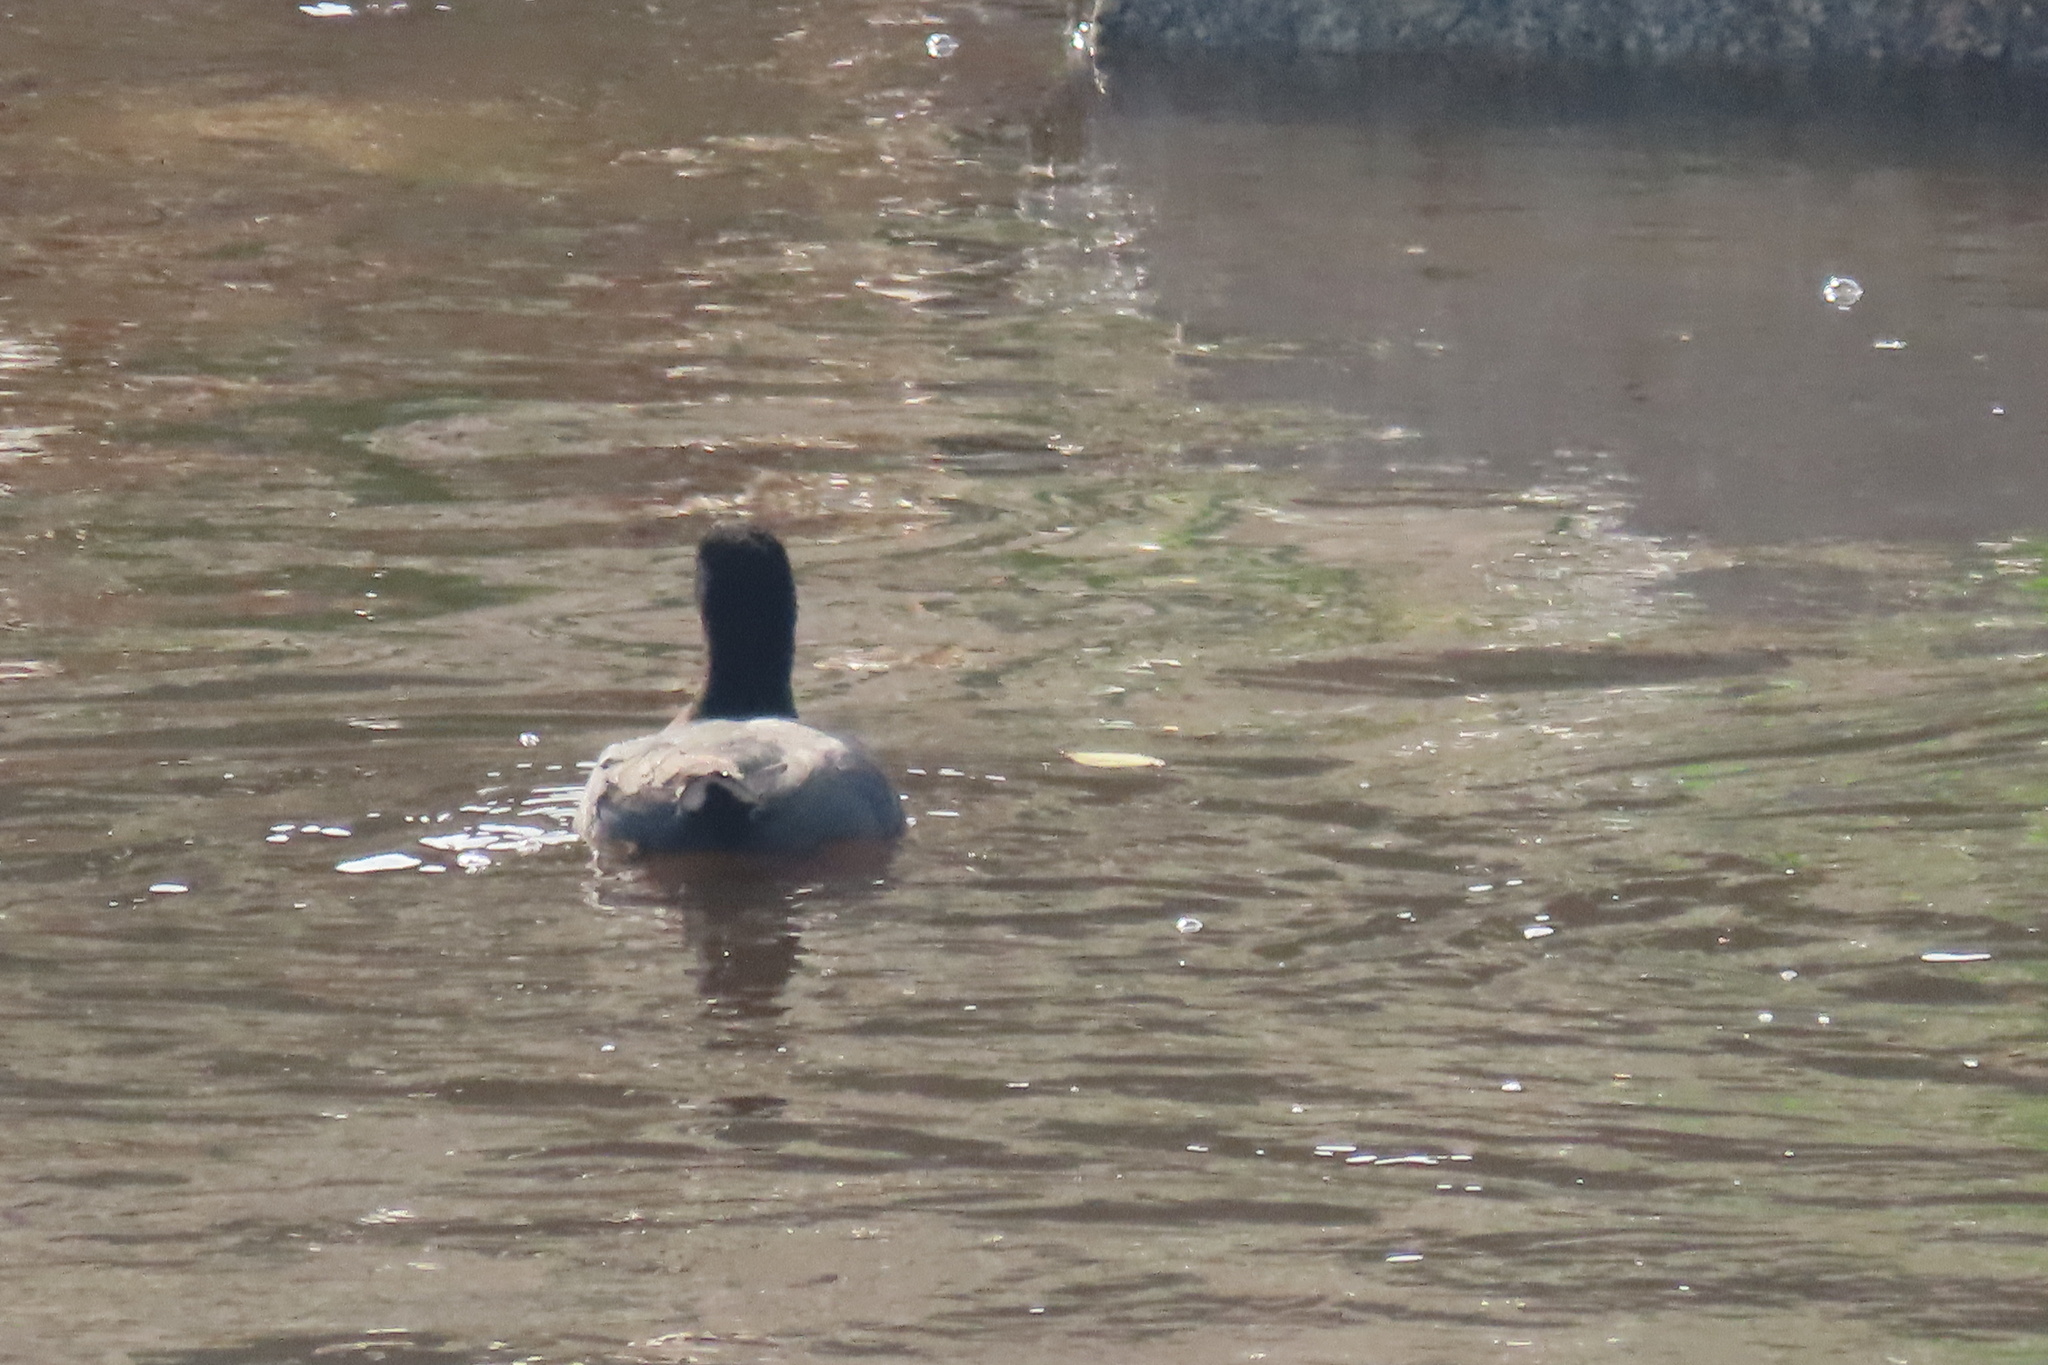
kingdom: Animalia
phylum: Chordata
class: Aves
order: Gruiformes
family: Rallidae
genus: Fulica
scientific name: Fulica americana
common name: American coot
